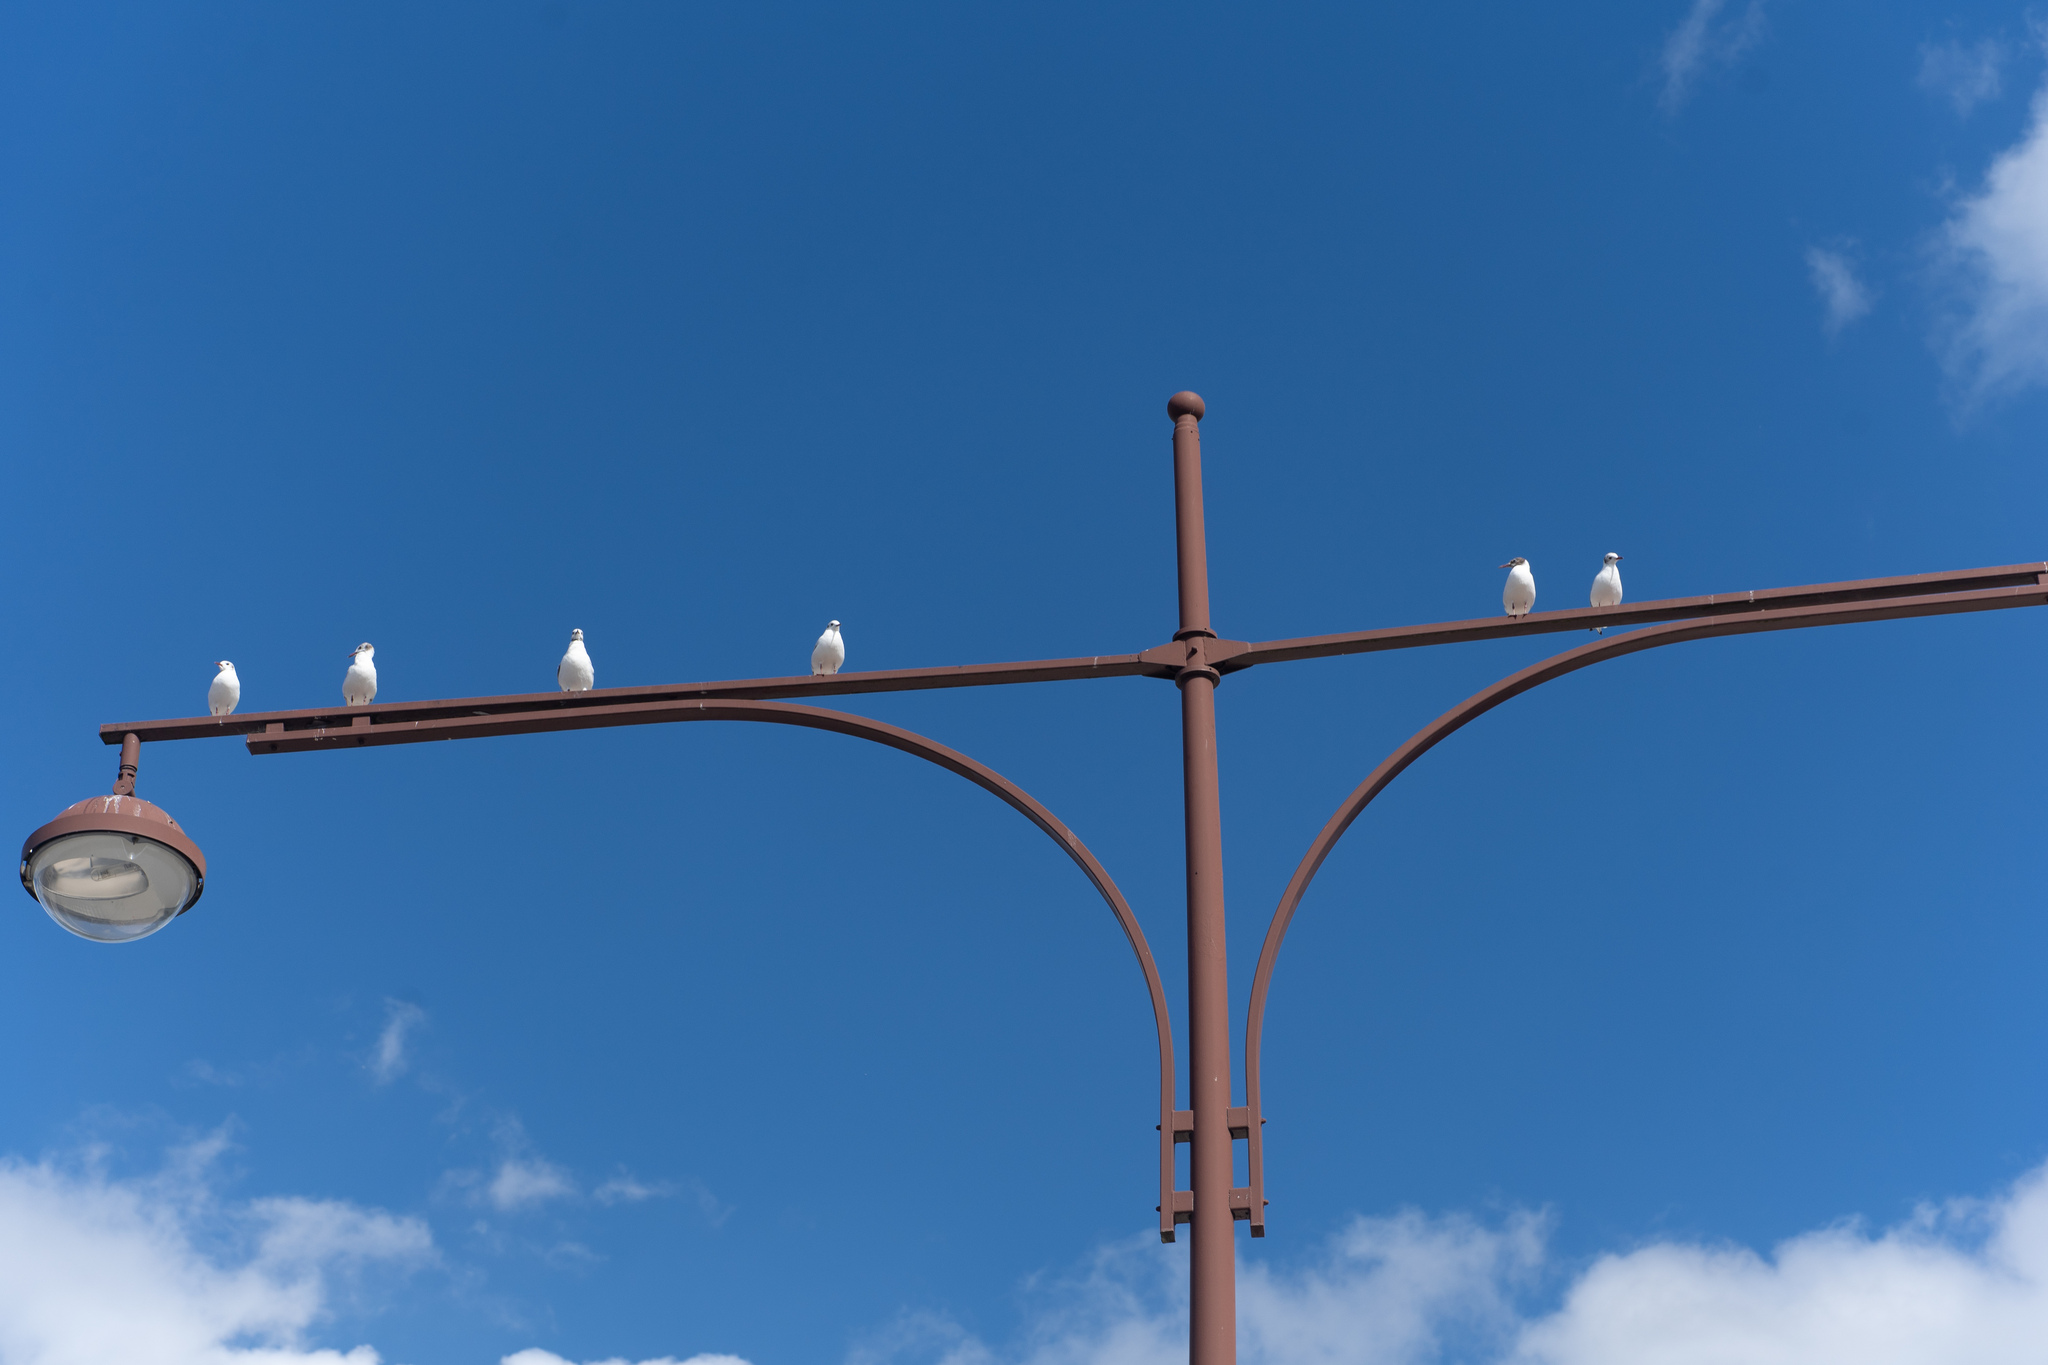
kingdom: Animalia
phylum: Chordata
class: Aves
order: Charadriiformes
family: Laridae
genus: Chroicocephalus
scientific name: Chroicocephalus ridibundus
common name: Black-headed gull
